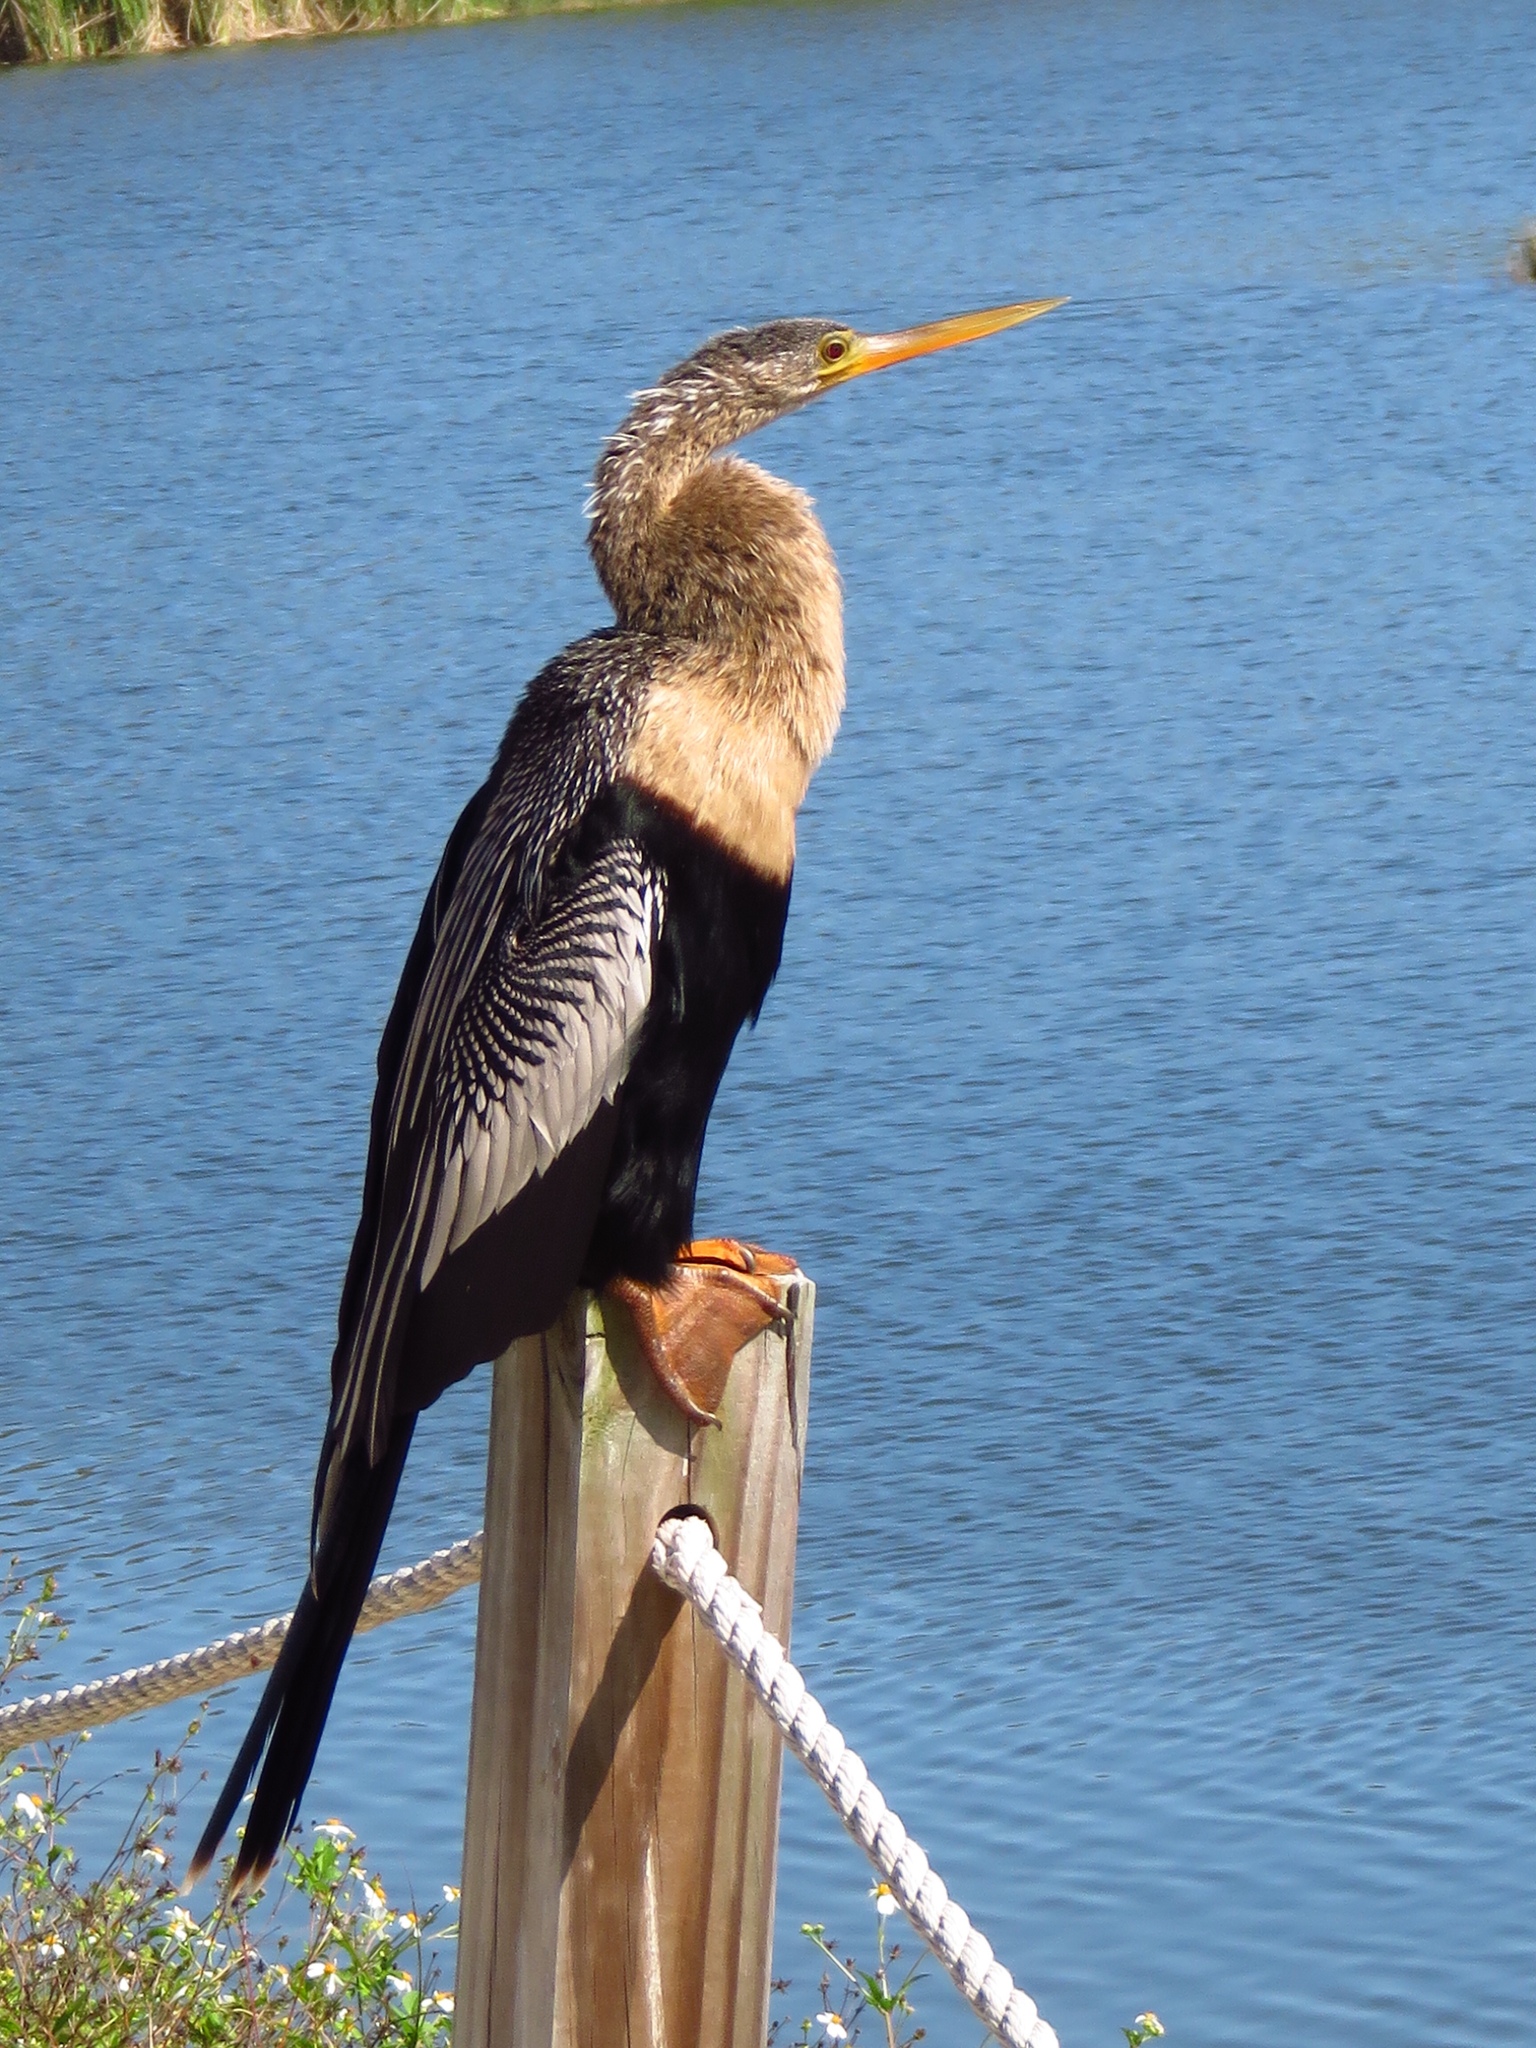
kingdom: Animalia
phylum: Chordata
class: Aves
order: Suliformes
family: Anhingidae
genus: Anhinga
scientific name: Anhinga anhinga
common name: Anhinga
